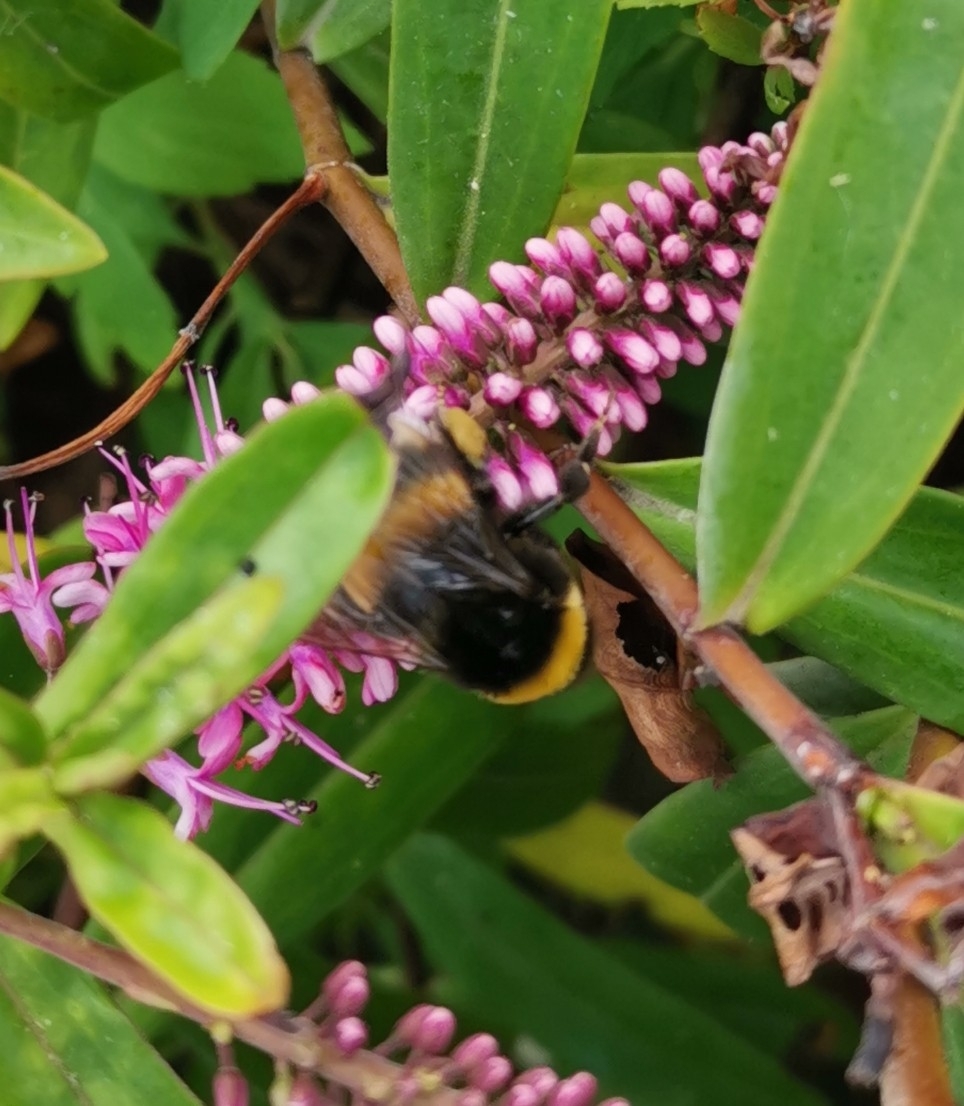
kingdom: Animalia
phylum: Arthropoda
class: Insecta
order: Hymenoptera
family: Apidae
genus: Bombus
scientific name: Bombus terrestris
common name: Buff-tailed bumblebee
